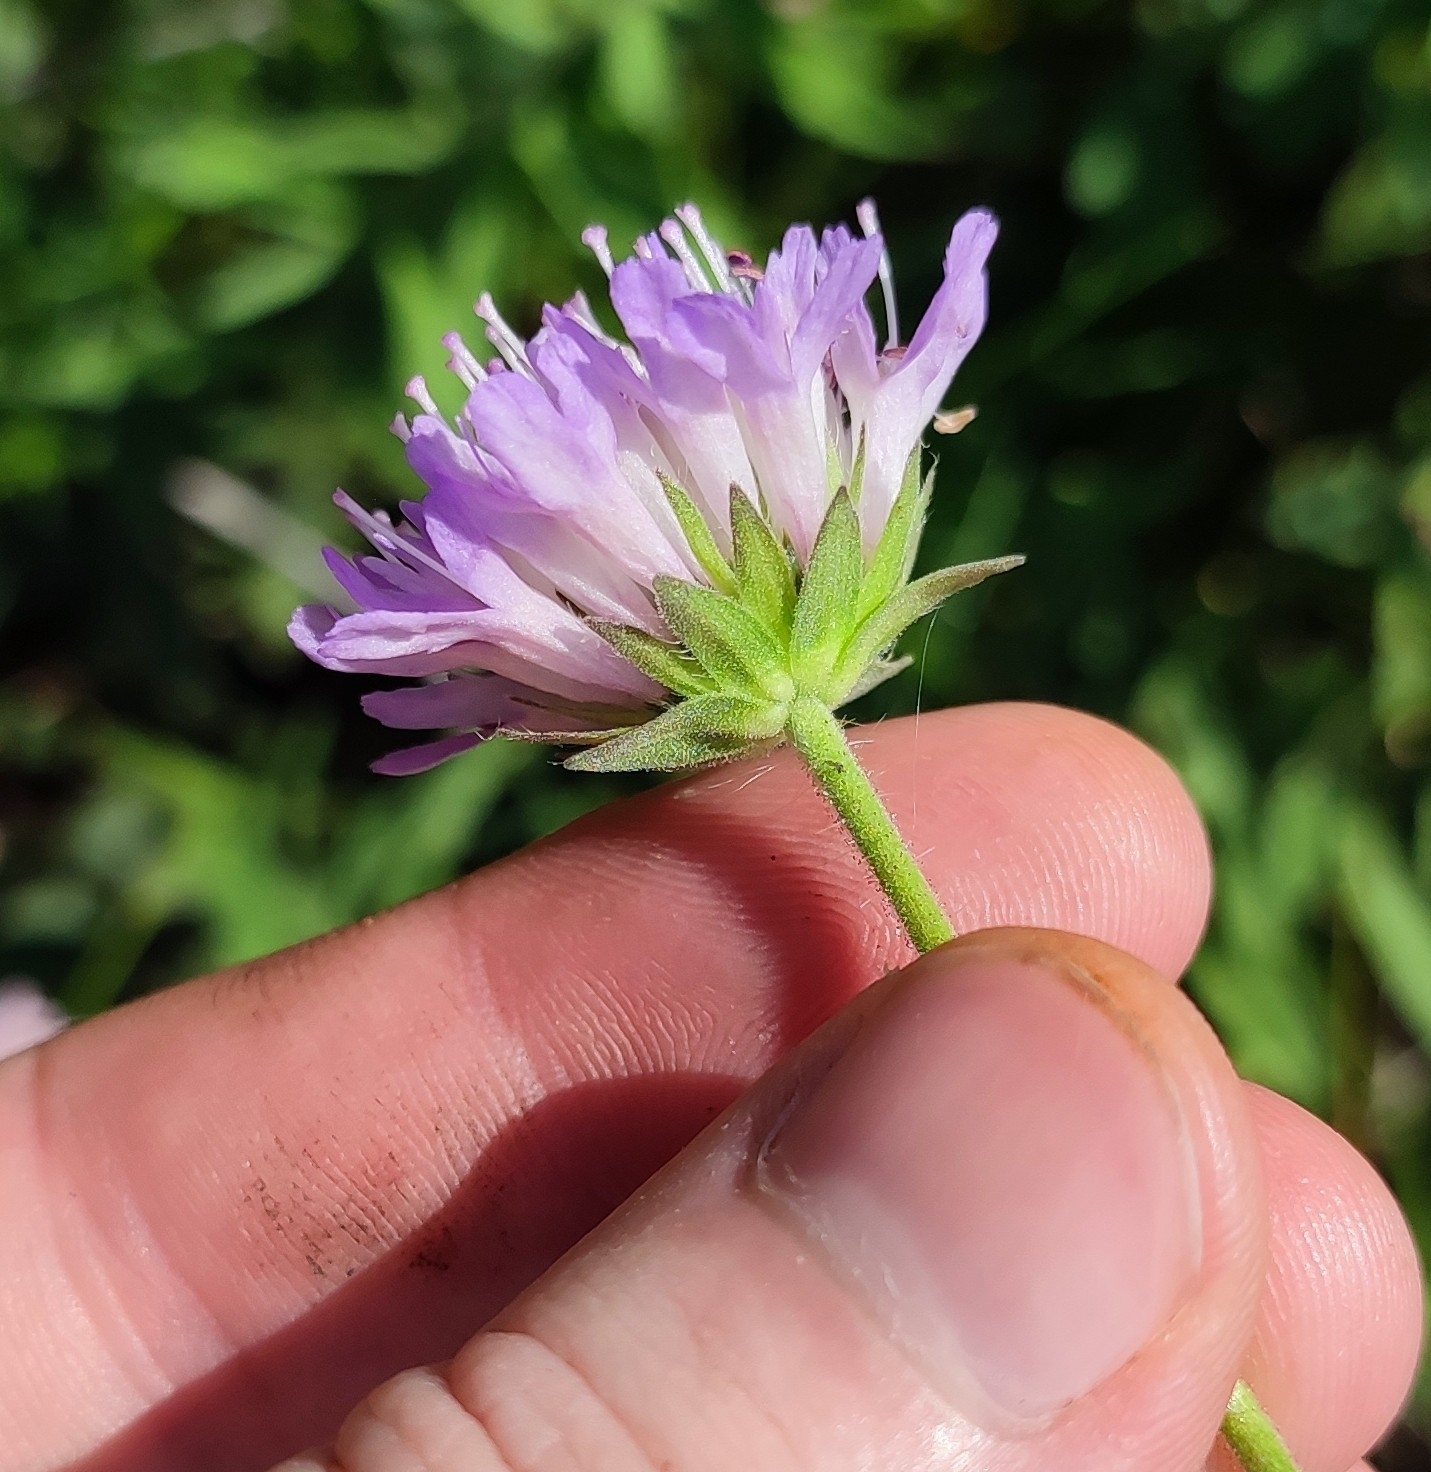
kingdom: Plantae
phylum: Tracheophyta
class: Magnoliopsida
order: Dipsacales
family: Caprifoliaceae
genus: Knautia
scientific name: Knautia arvensis
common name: Field scabiosa
